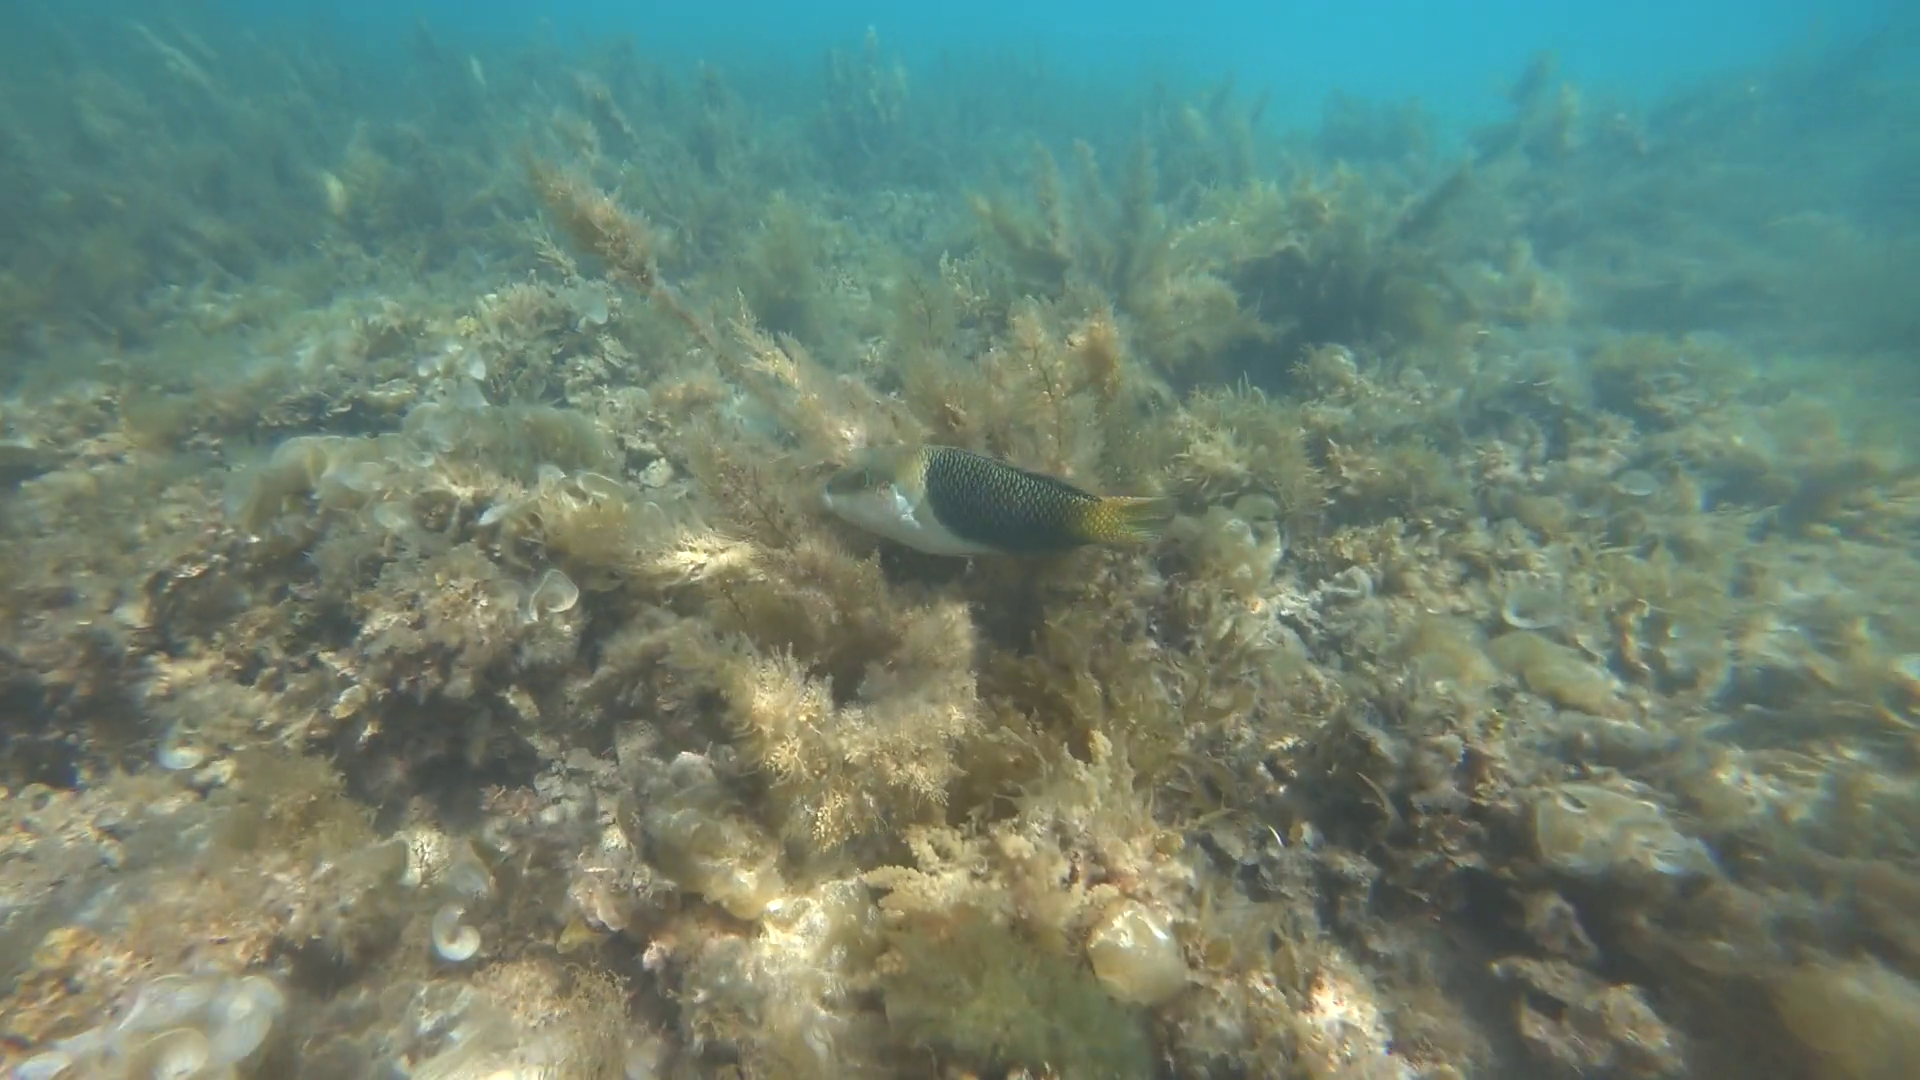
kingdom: Animalia
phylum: Chordata
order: Perciformes
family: Labridae
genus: Hemigymnus
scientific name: Hemigymnus melapterus
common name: Blackeye thicklip
